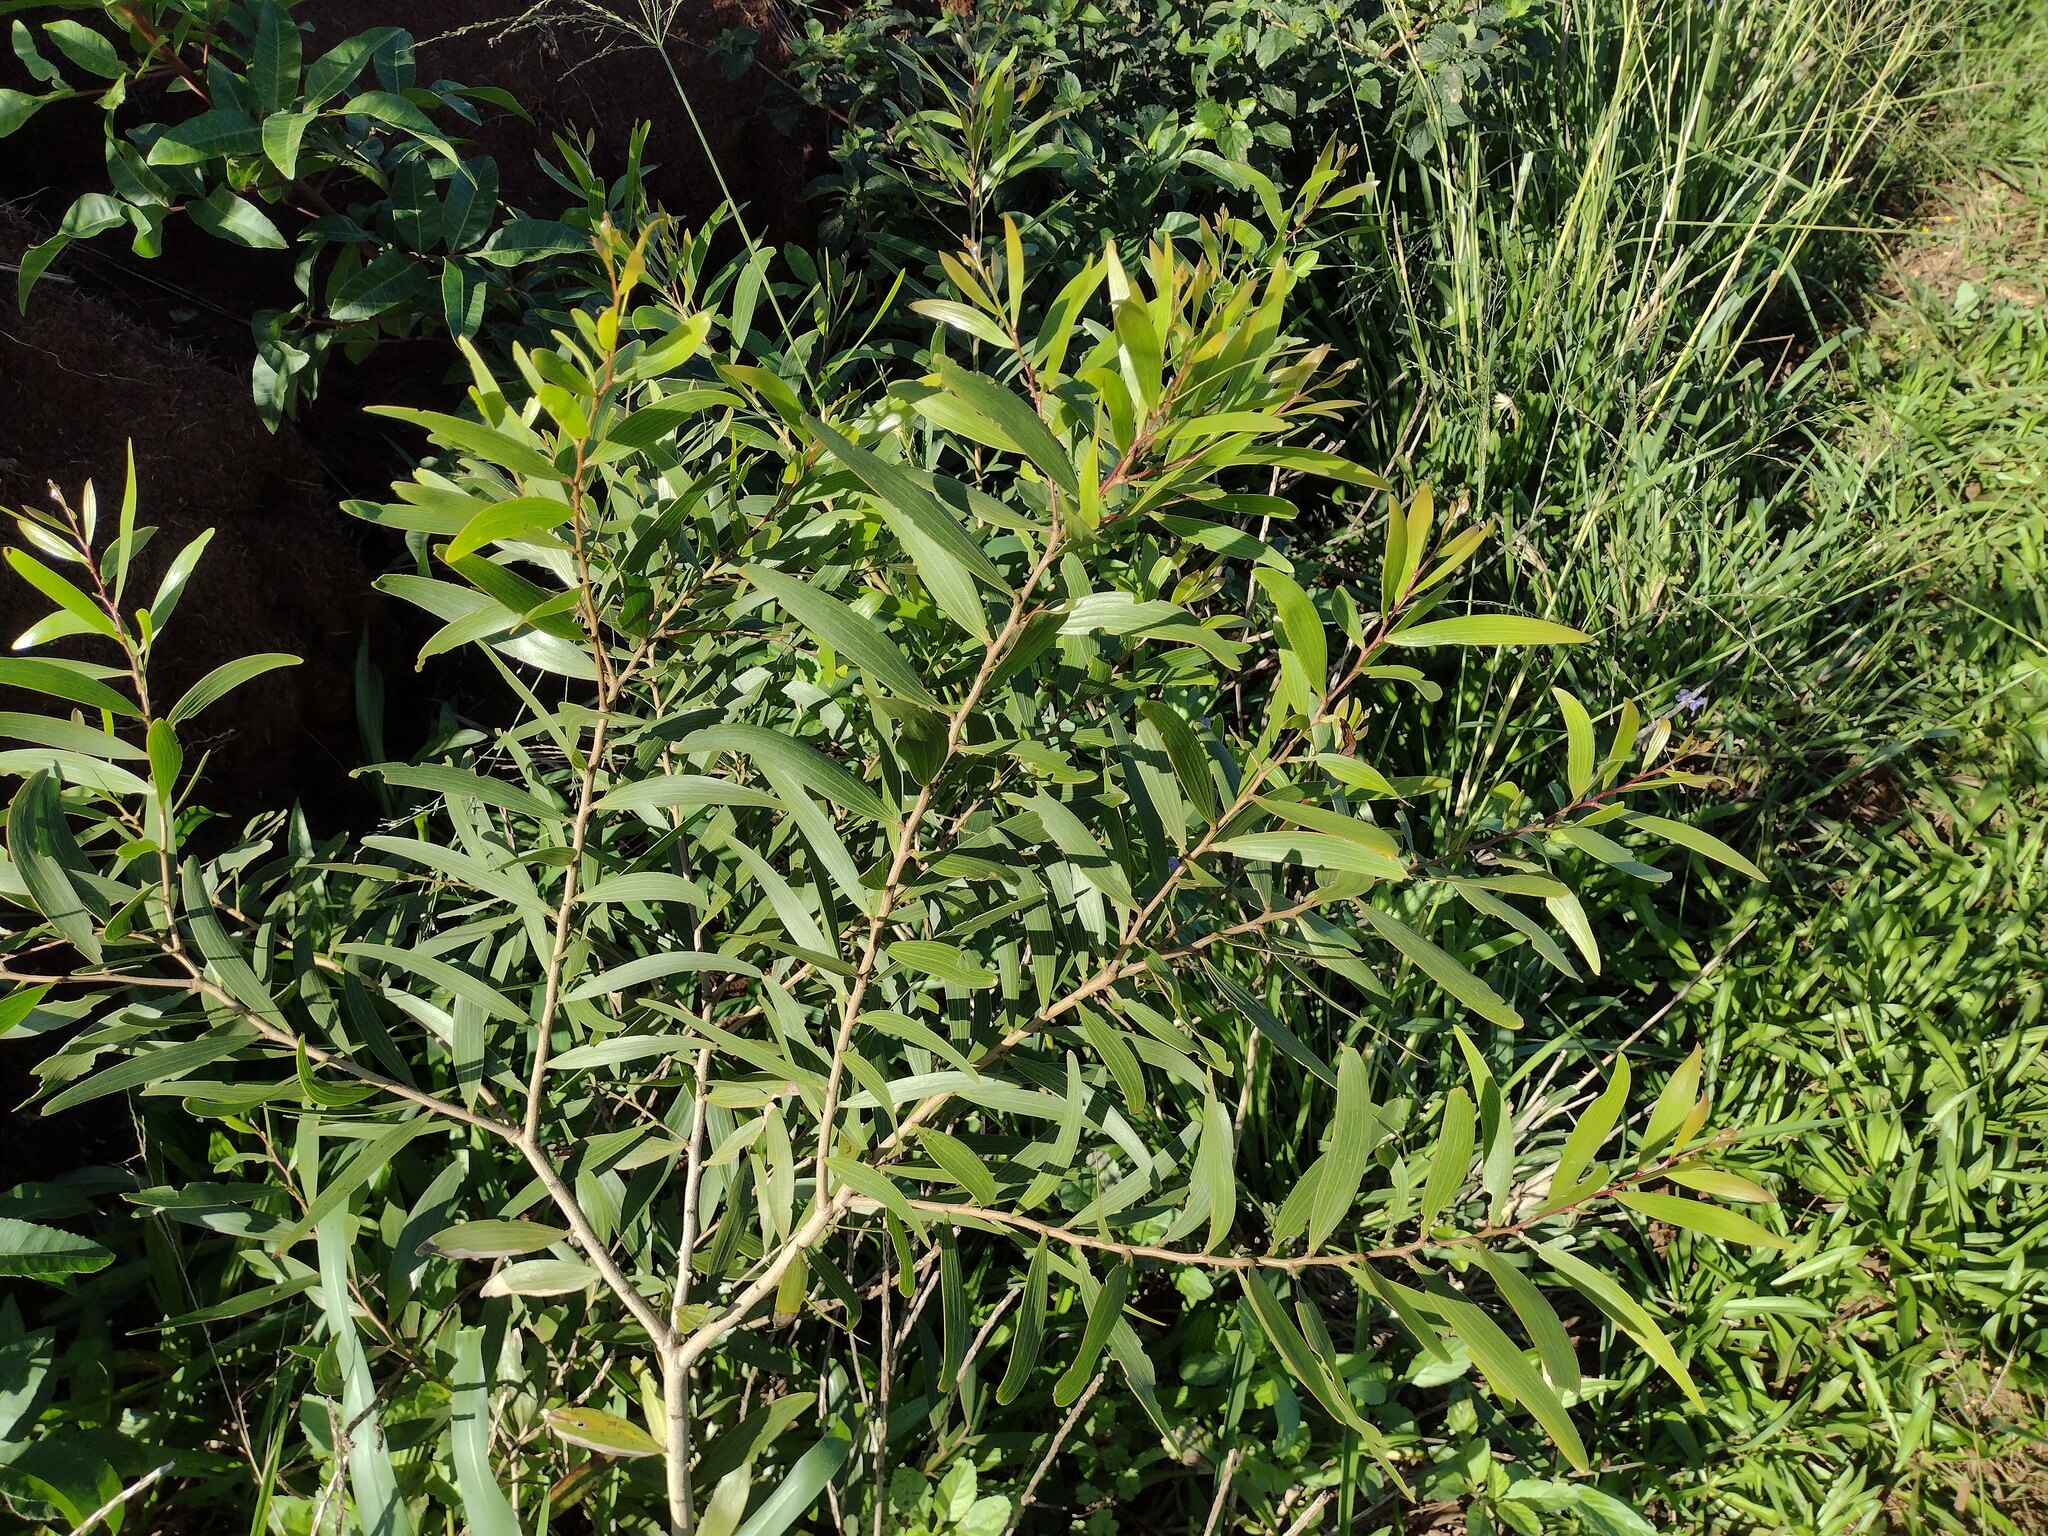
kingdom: Plantae
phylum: Tracheophyta
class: Magnoliopsida
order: Fabales
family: Fabaceae
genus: Acacia
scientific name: Acacia confusa
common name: Formosan koa
